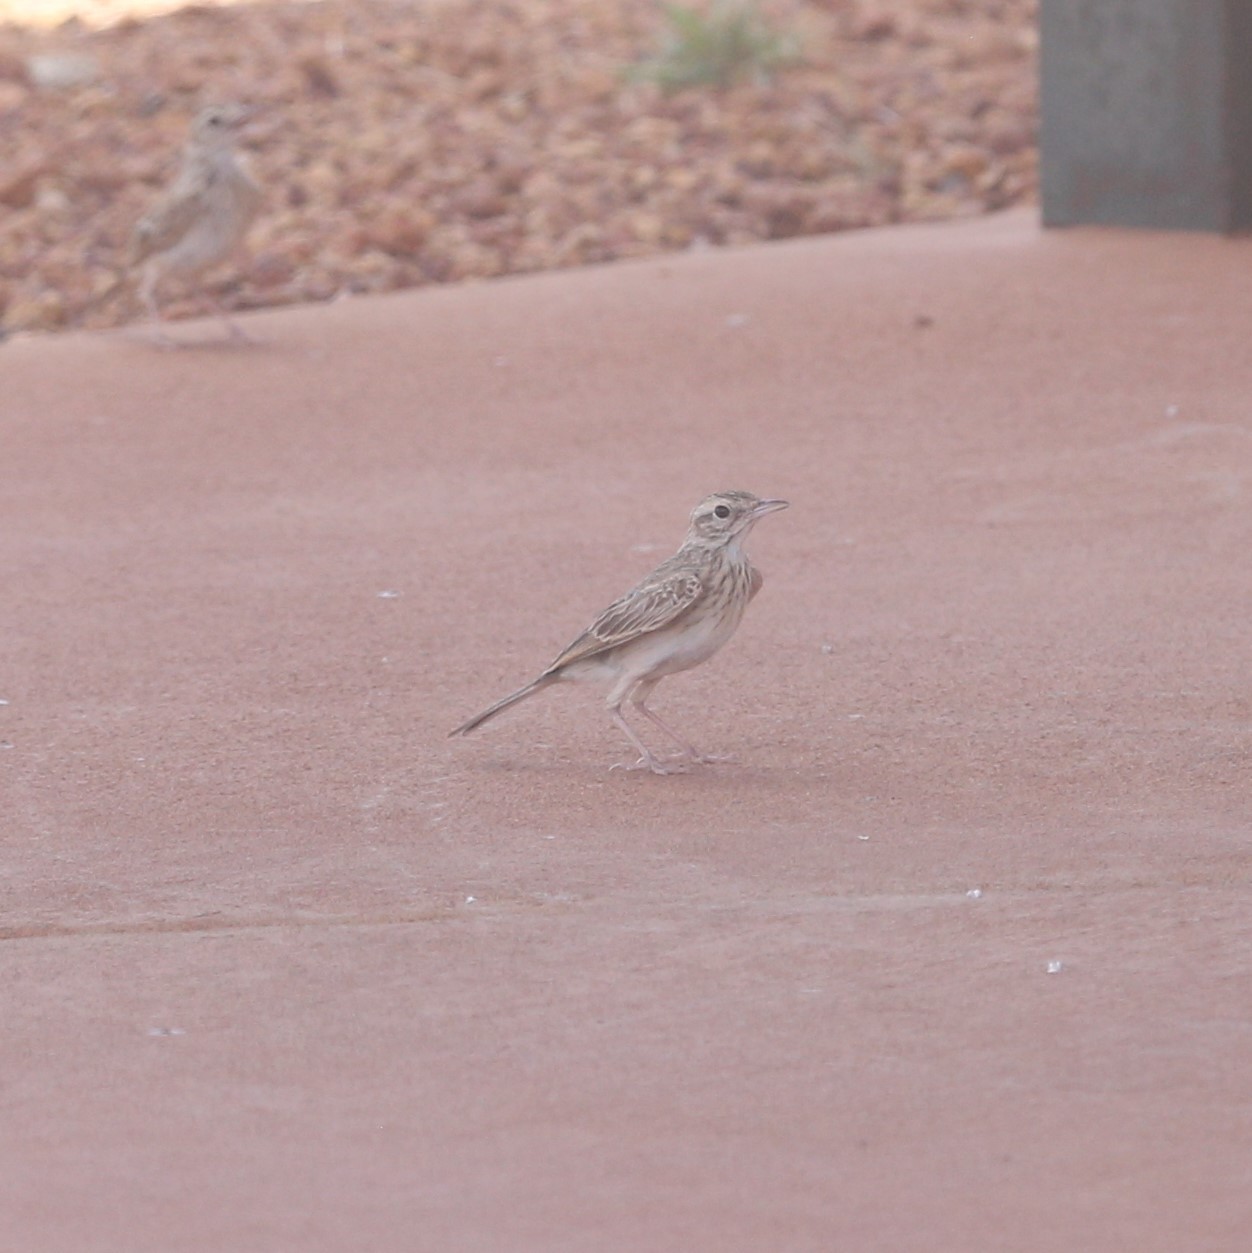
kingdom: Animalia
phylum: Chordata
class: Aves
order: Passeriformes
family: Motacillidae
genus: Anthus
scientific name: Anthus australis
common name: Australian pipit
